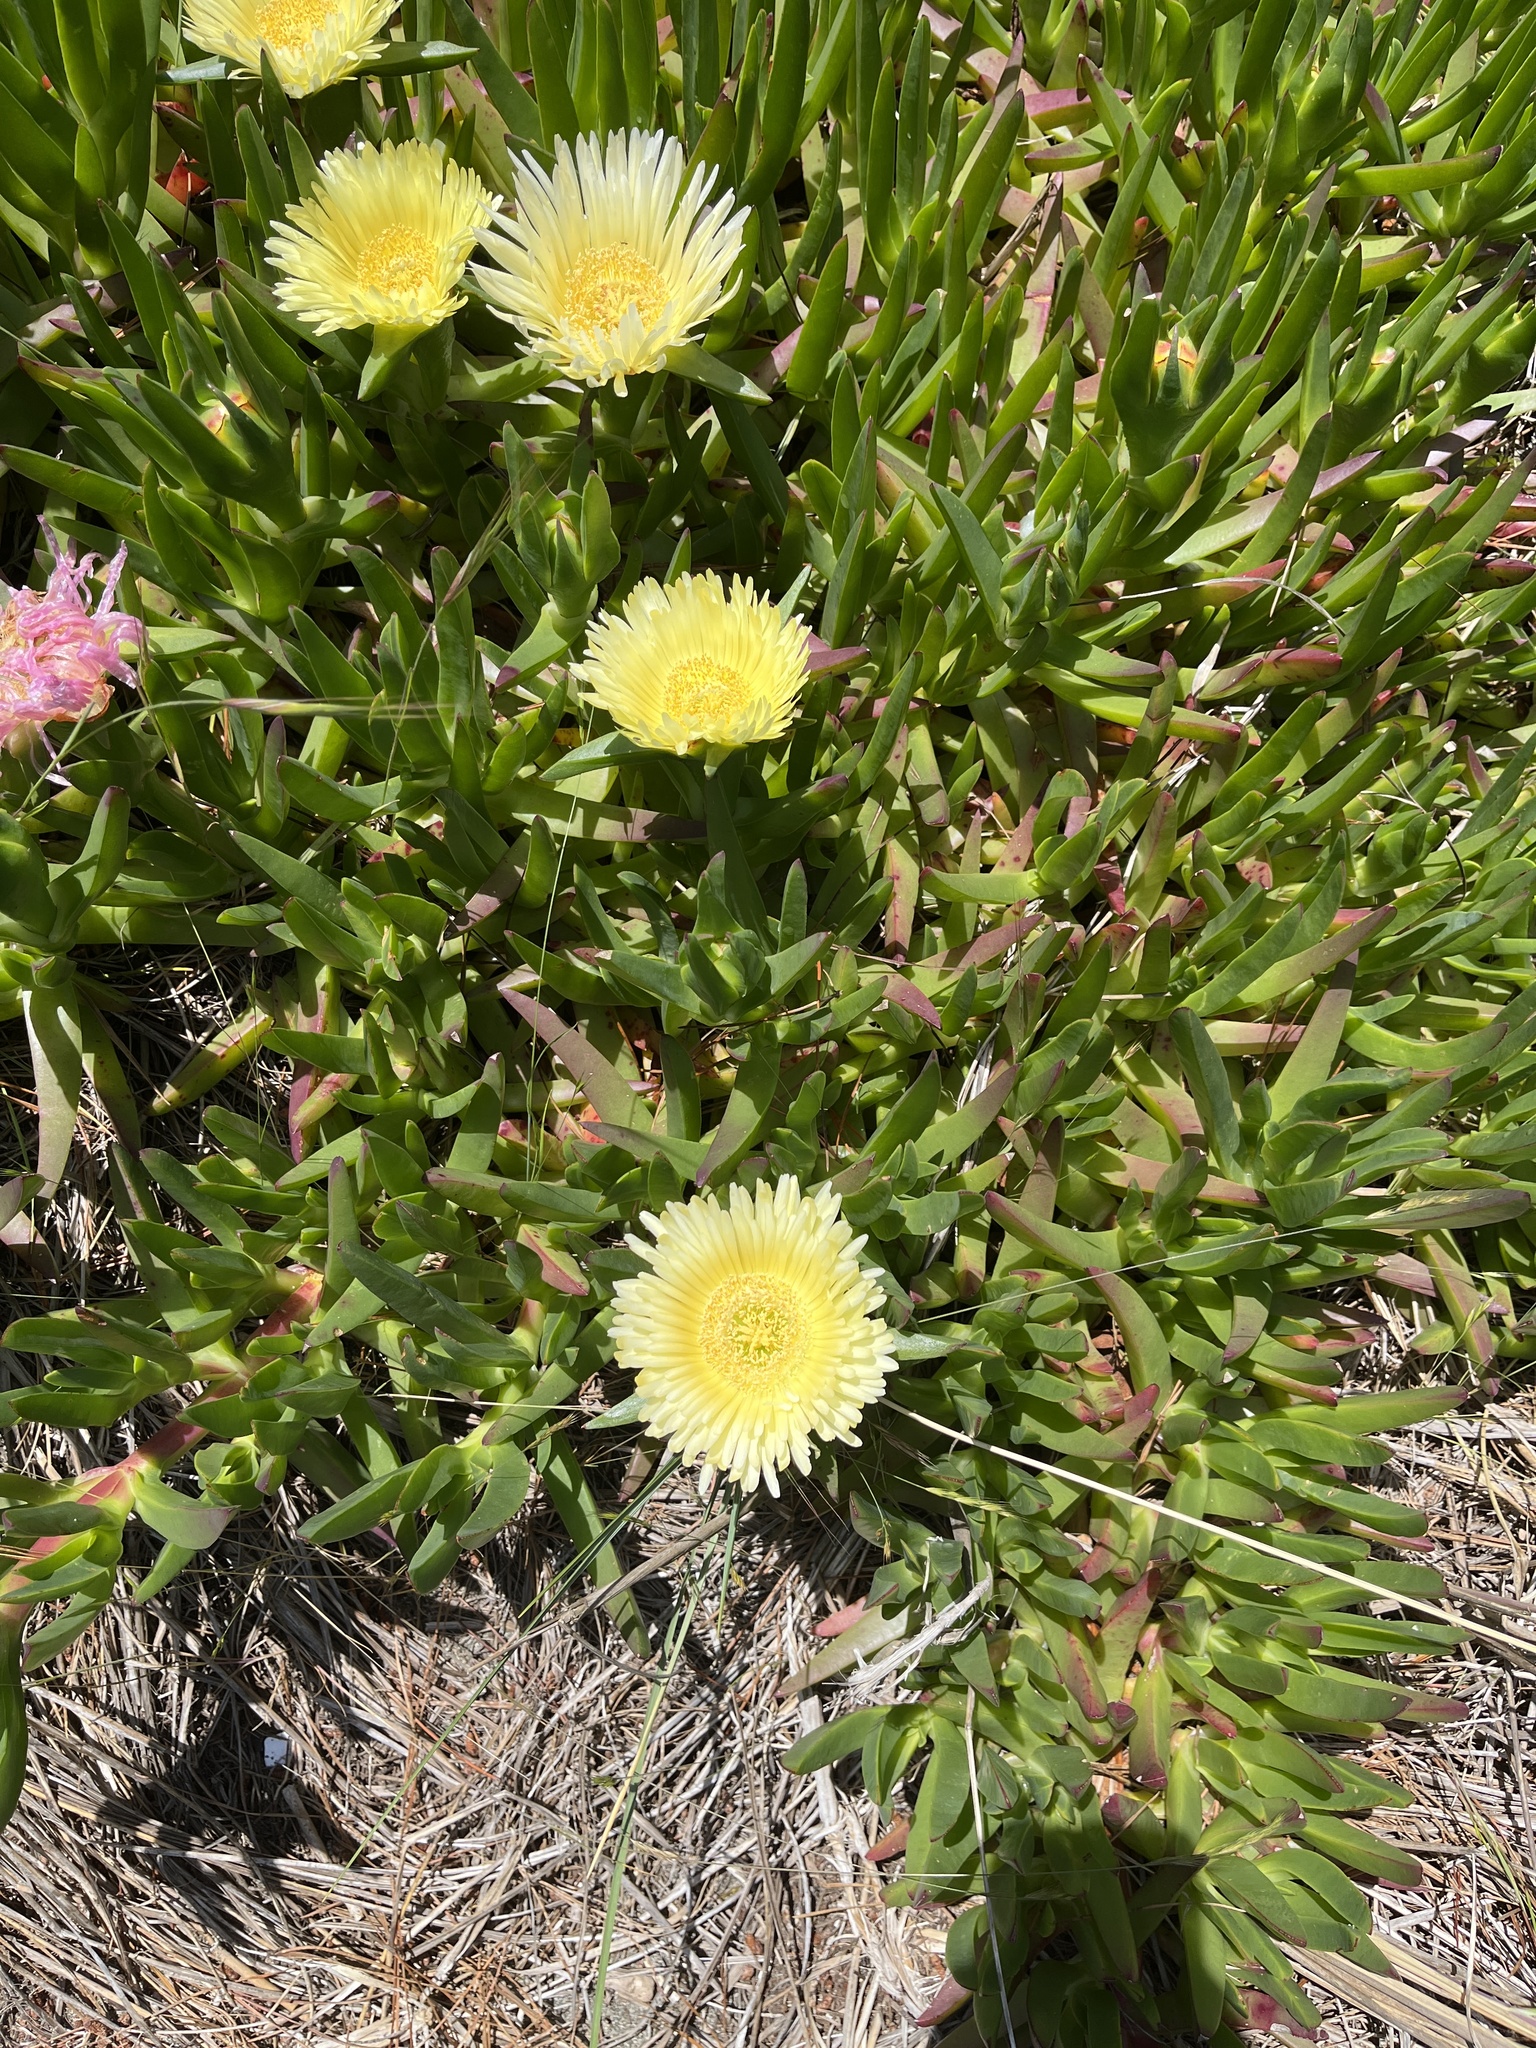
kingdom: Plantae
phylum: Tracheophyta
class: Magnoliopsida
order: Caryophyllales
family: Aizoaceae
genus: Carpobrotus
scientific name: Carpobrotus edulis
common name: Hottentot-fig
